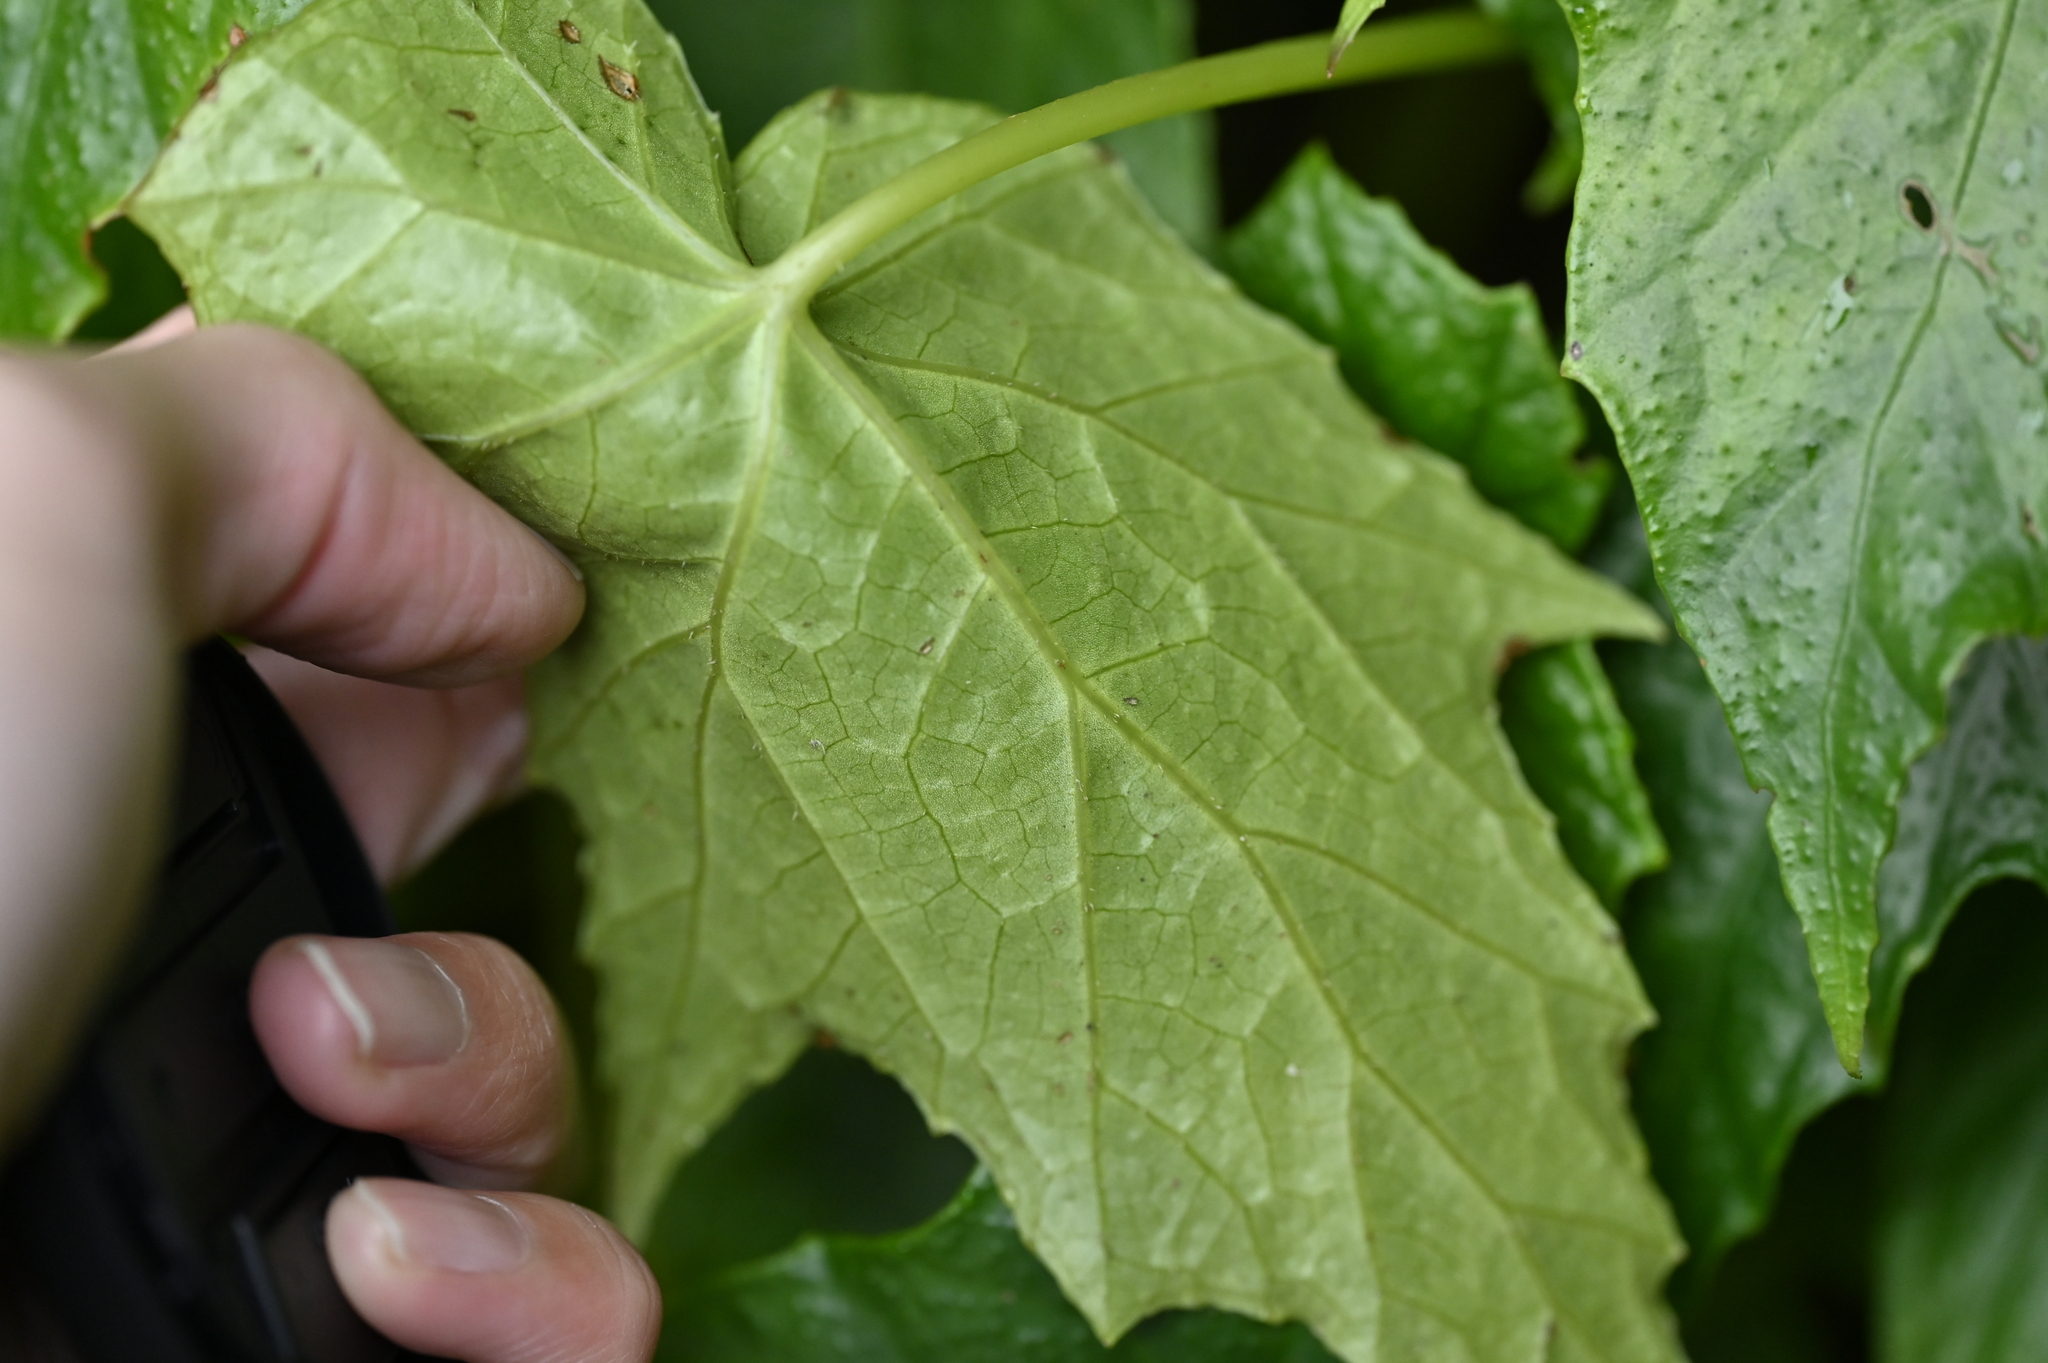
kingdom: Plantae
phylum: Tracheophyta
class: Magnoliopsida
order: Cucurbitales
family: Begoniaceae
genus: Begonia
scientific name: Begonia formosana
